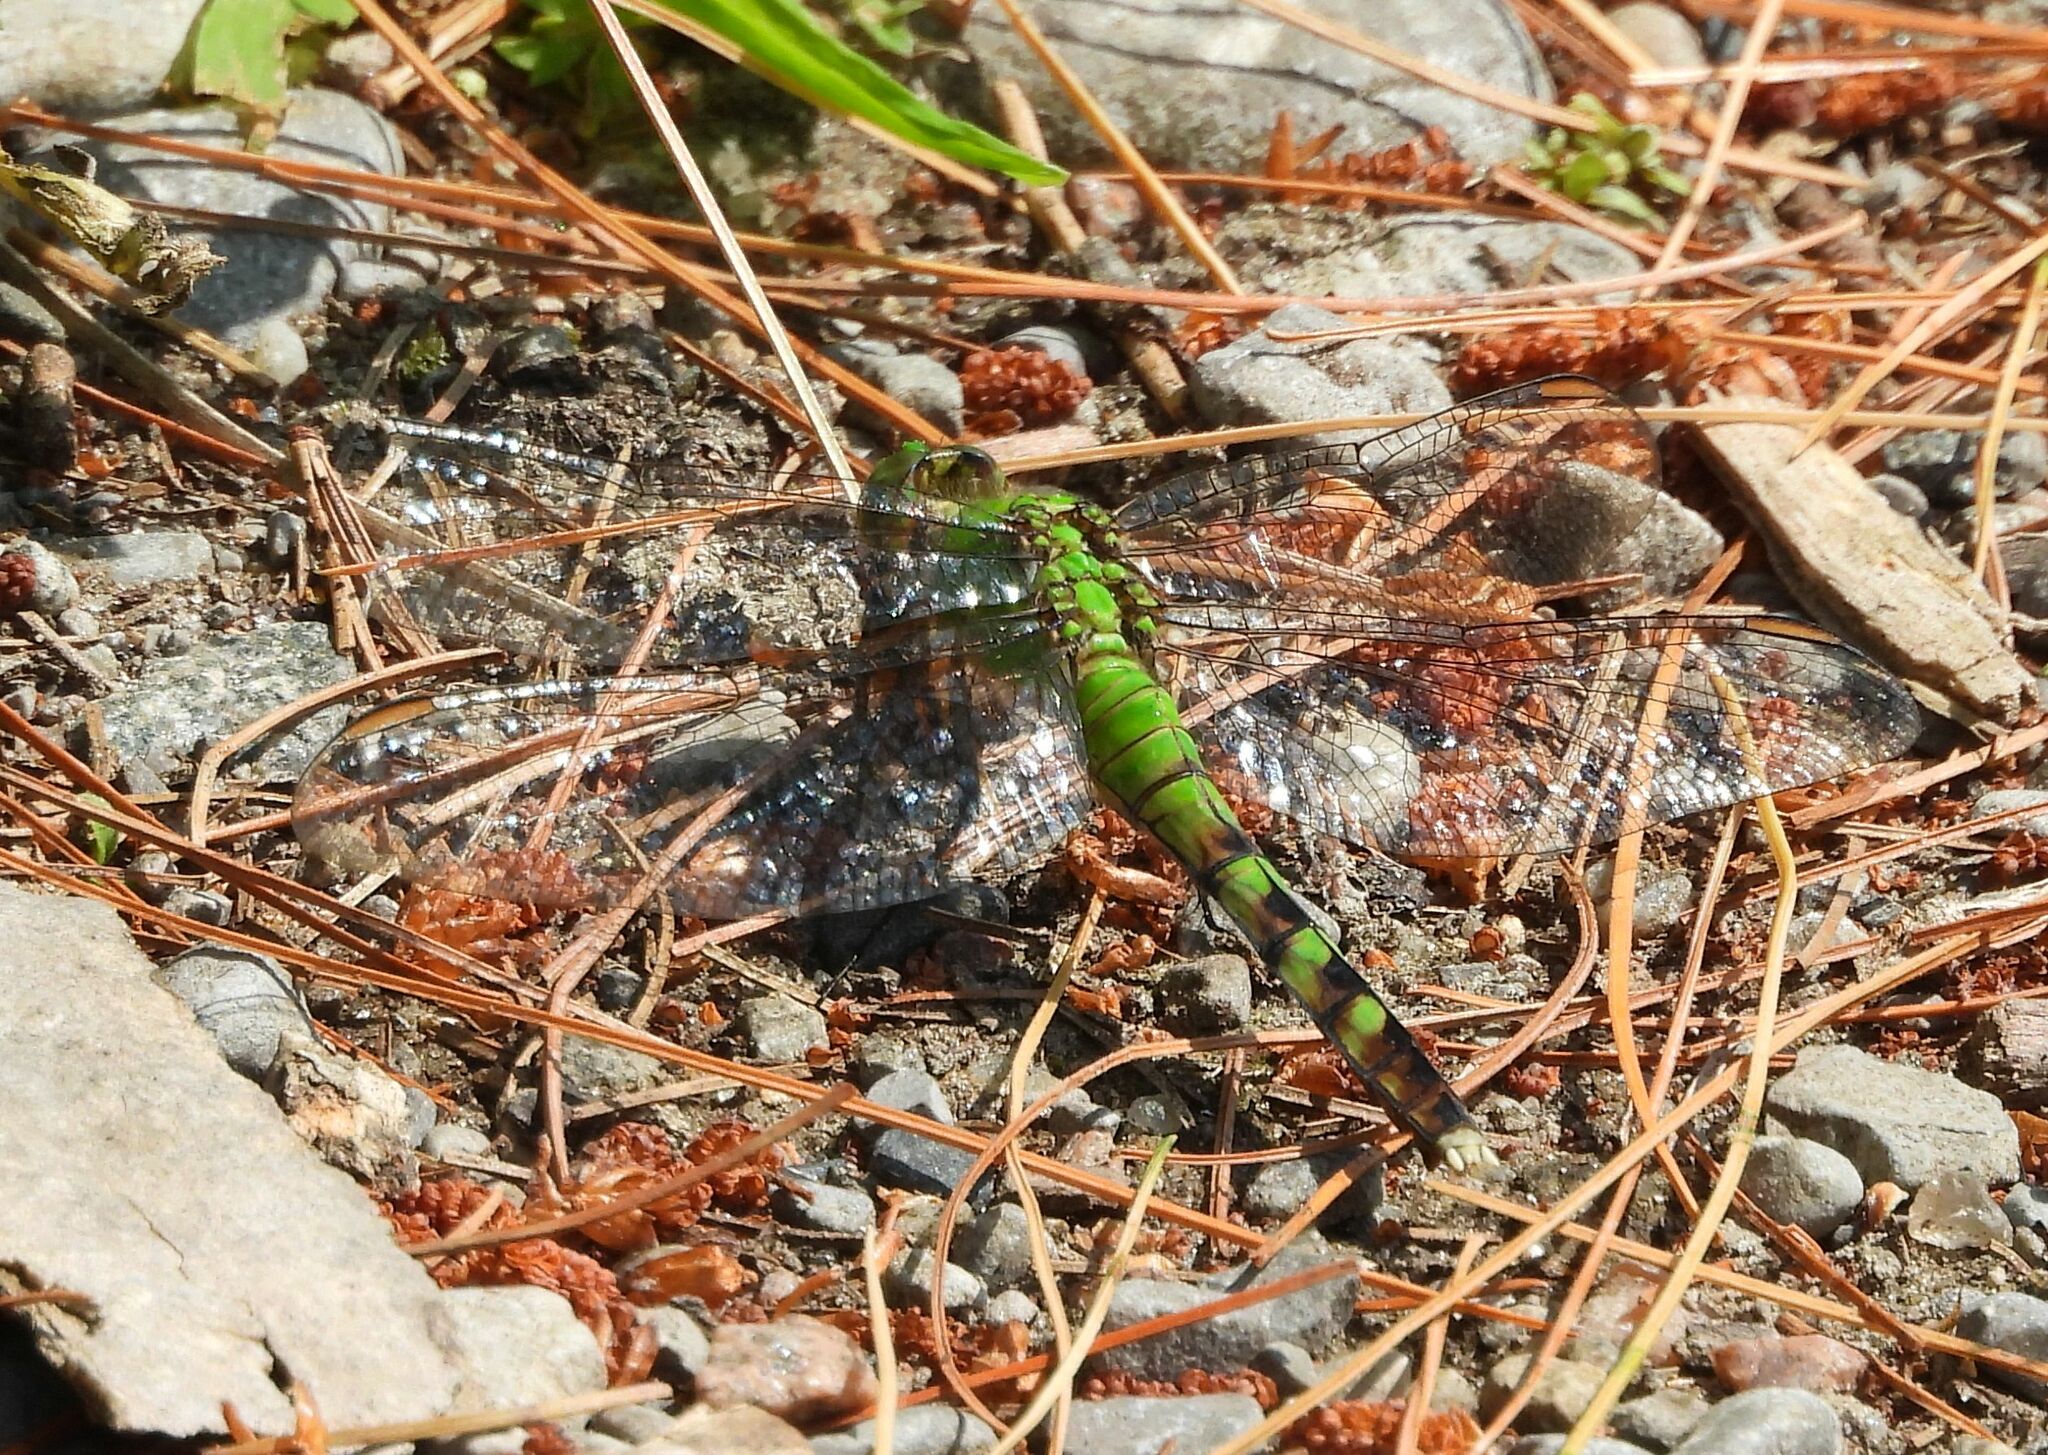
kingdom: Animalia
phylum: Arthropoda
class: Insecta
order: Odonata
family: Libellulidae
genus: Erythemis
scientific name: Erythemis simplicicollis
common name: Eastern pondhawk
